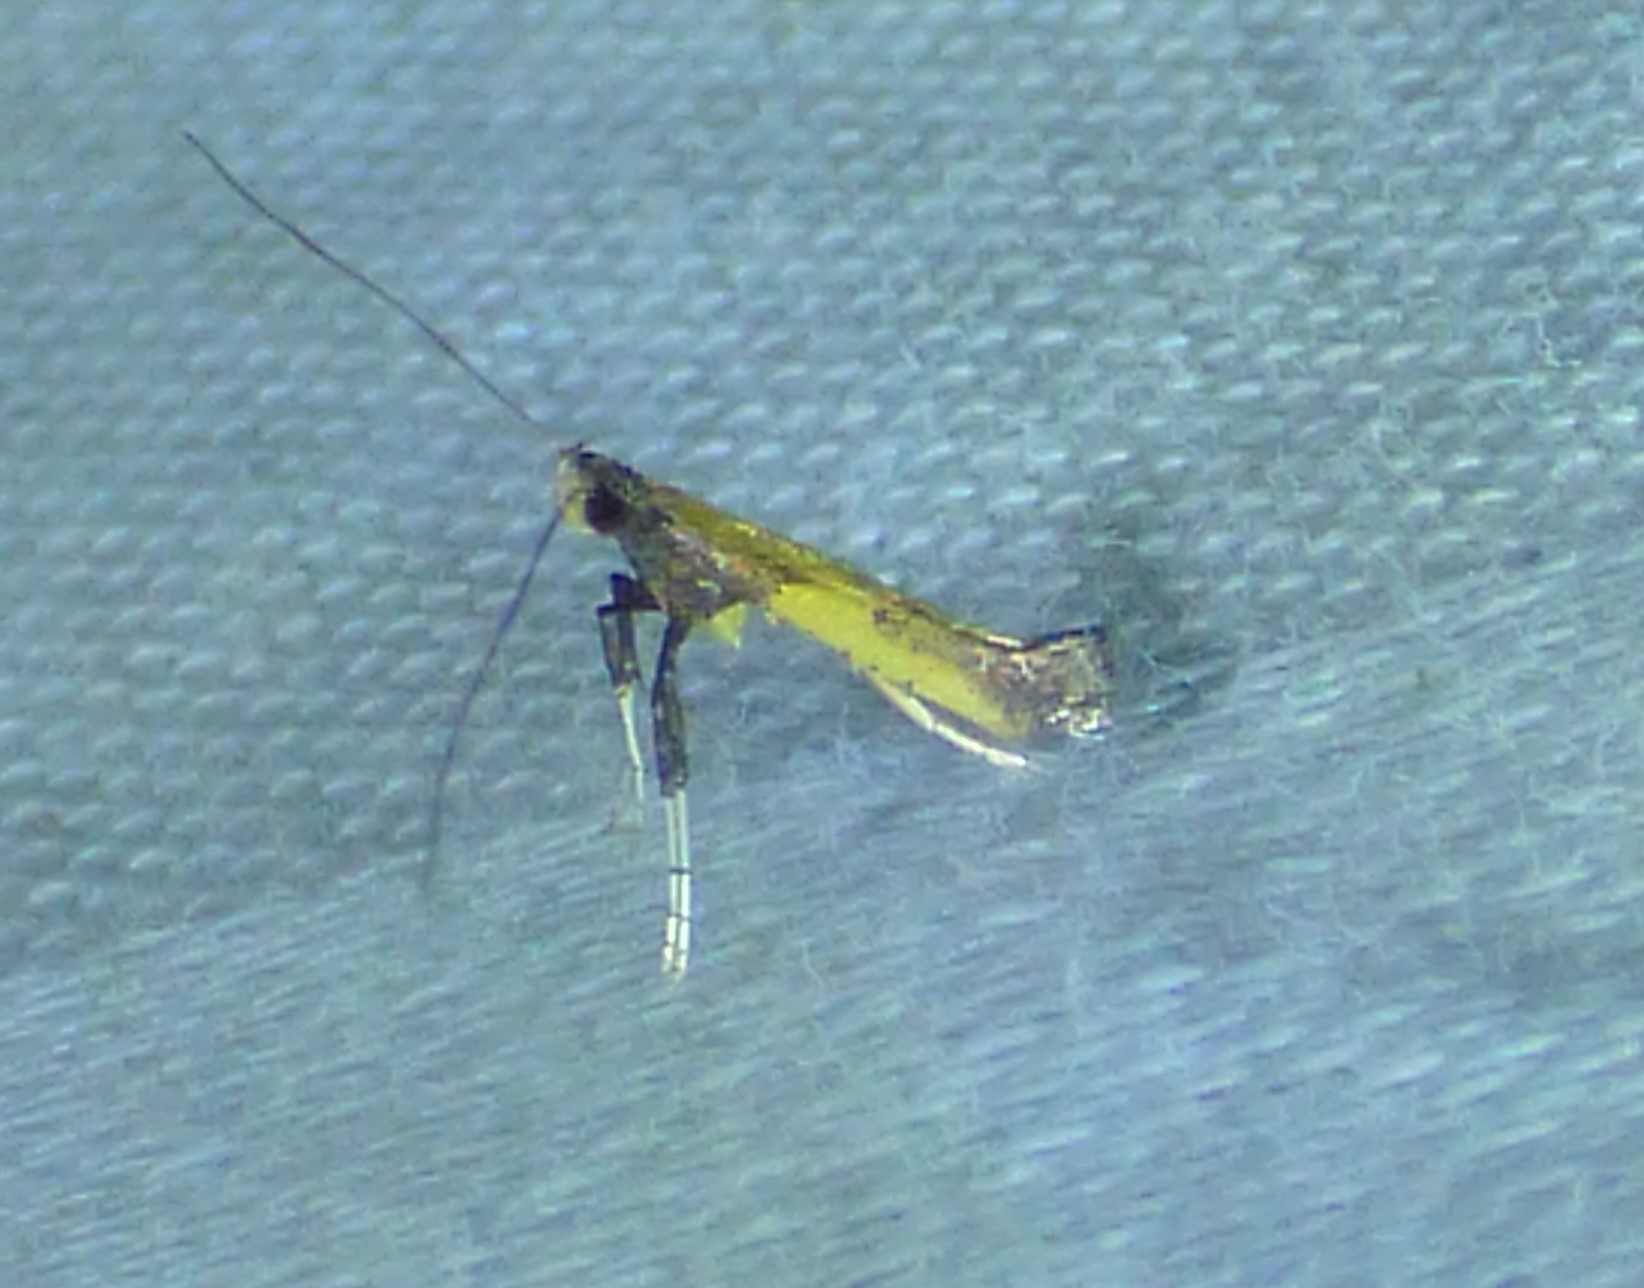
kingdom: Animalia
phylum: Arthropoda
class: Insecta
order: Lepidoptera
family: Gracillariidae
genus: Caloptilia
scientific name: Caloptilia azaleella
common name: Azalea leafminer
